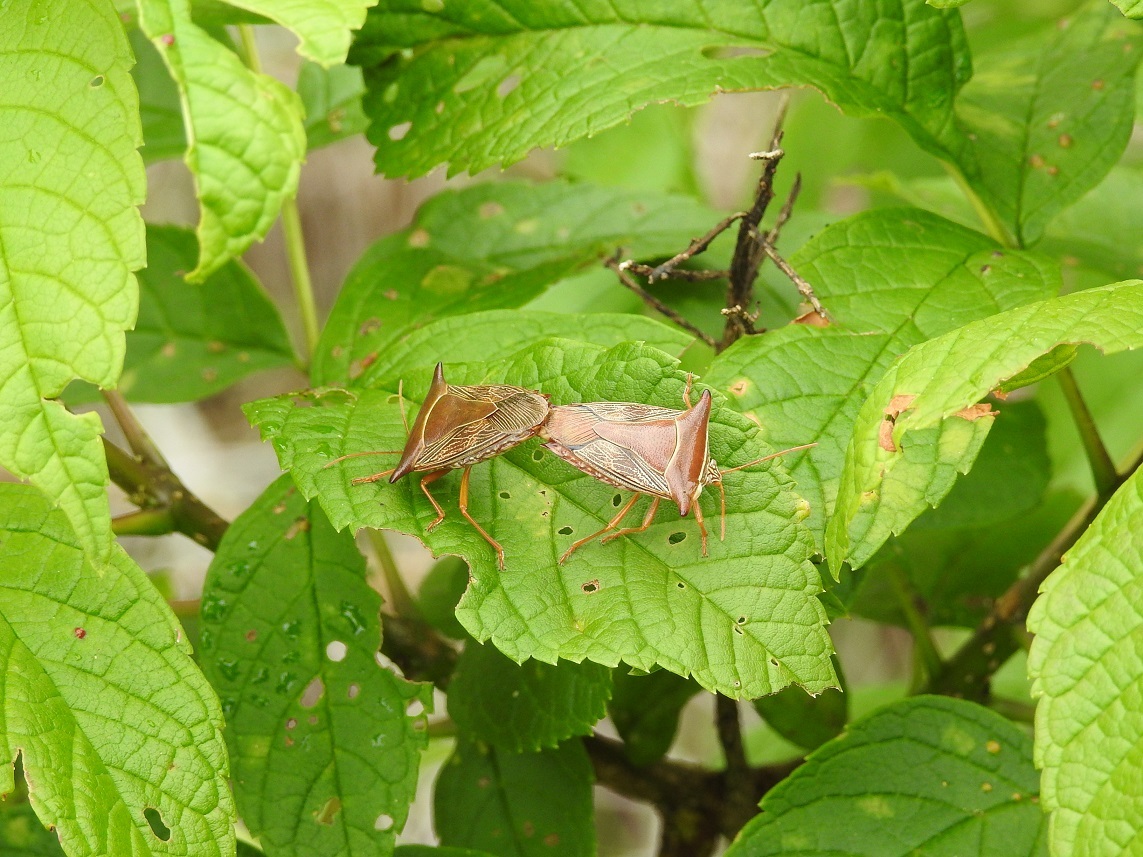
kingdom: Animalia
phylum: Arthropoda
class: Insecta
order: Hemiptera
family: Pentatomidae
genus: Edessa
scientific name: Edessa reticulata
